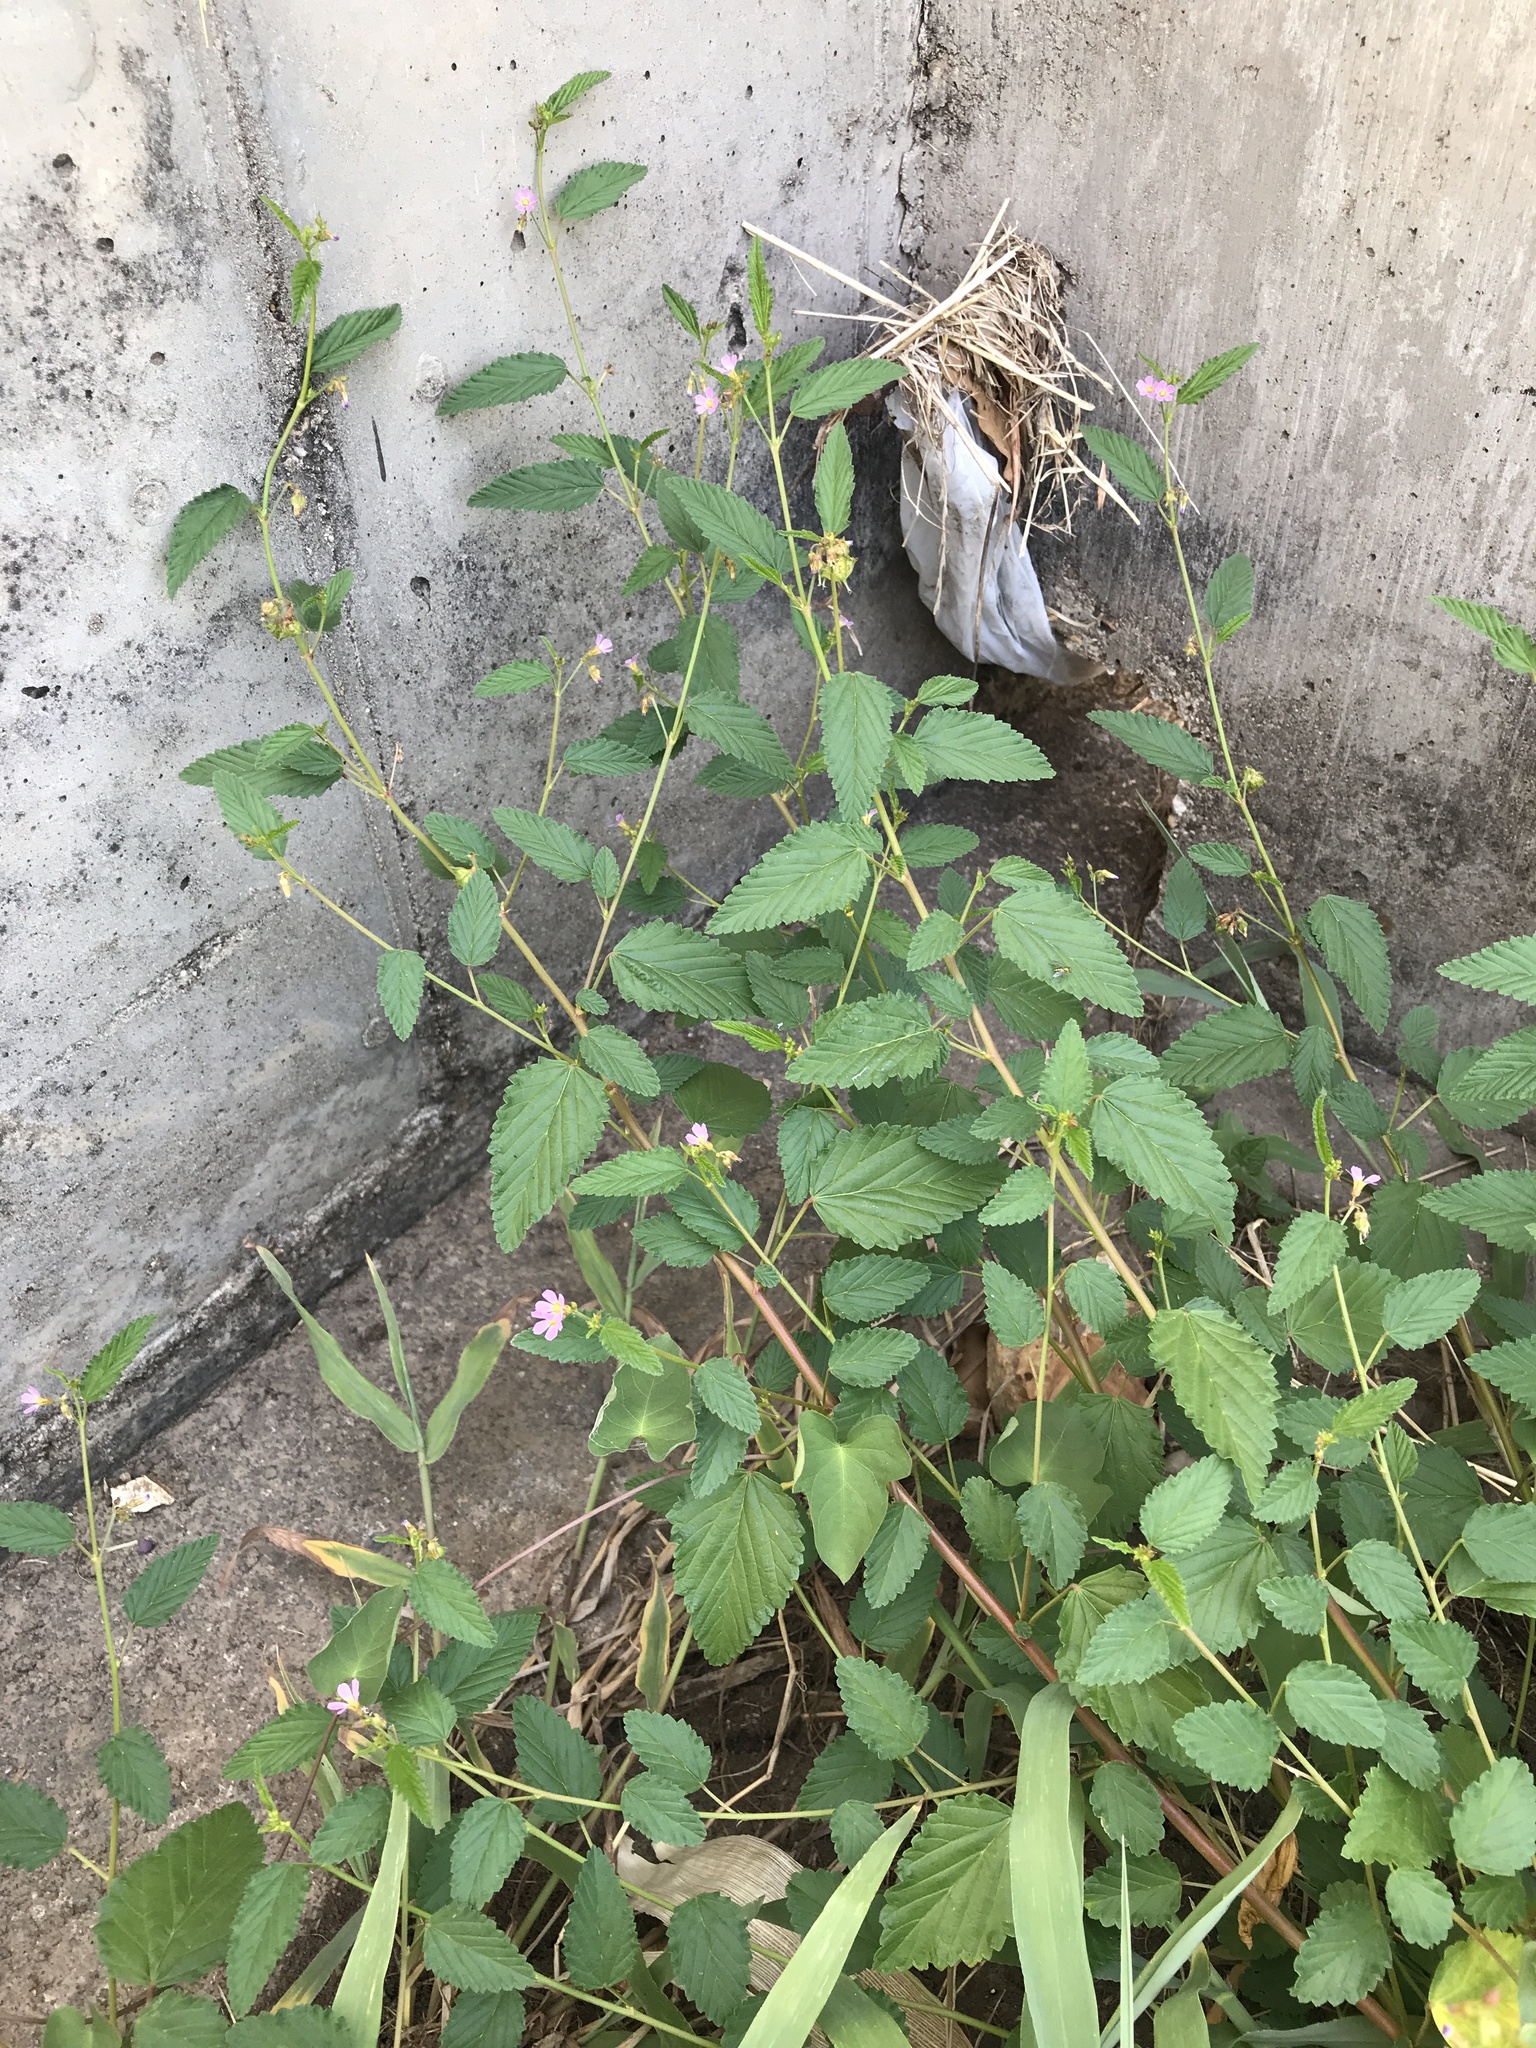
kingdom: Plantae
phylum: Tracheophyta
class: Magnoliopsida
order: Malvales
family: Malvaceae
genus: Melochia
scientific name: Melochia pyramidata
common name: Pyramidflower
